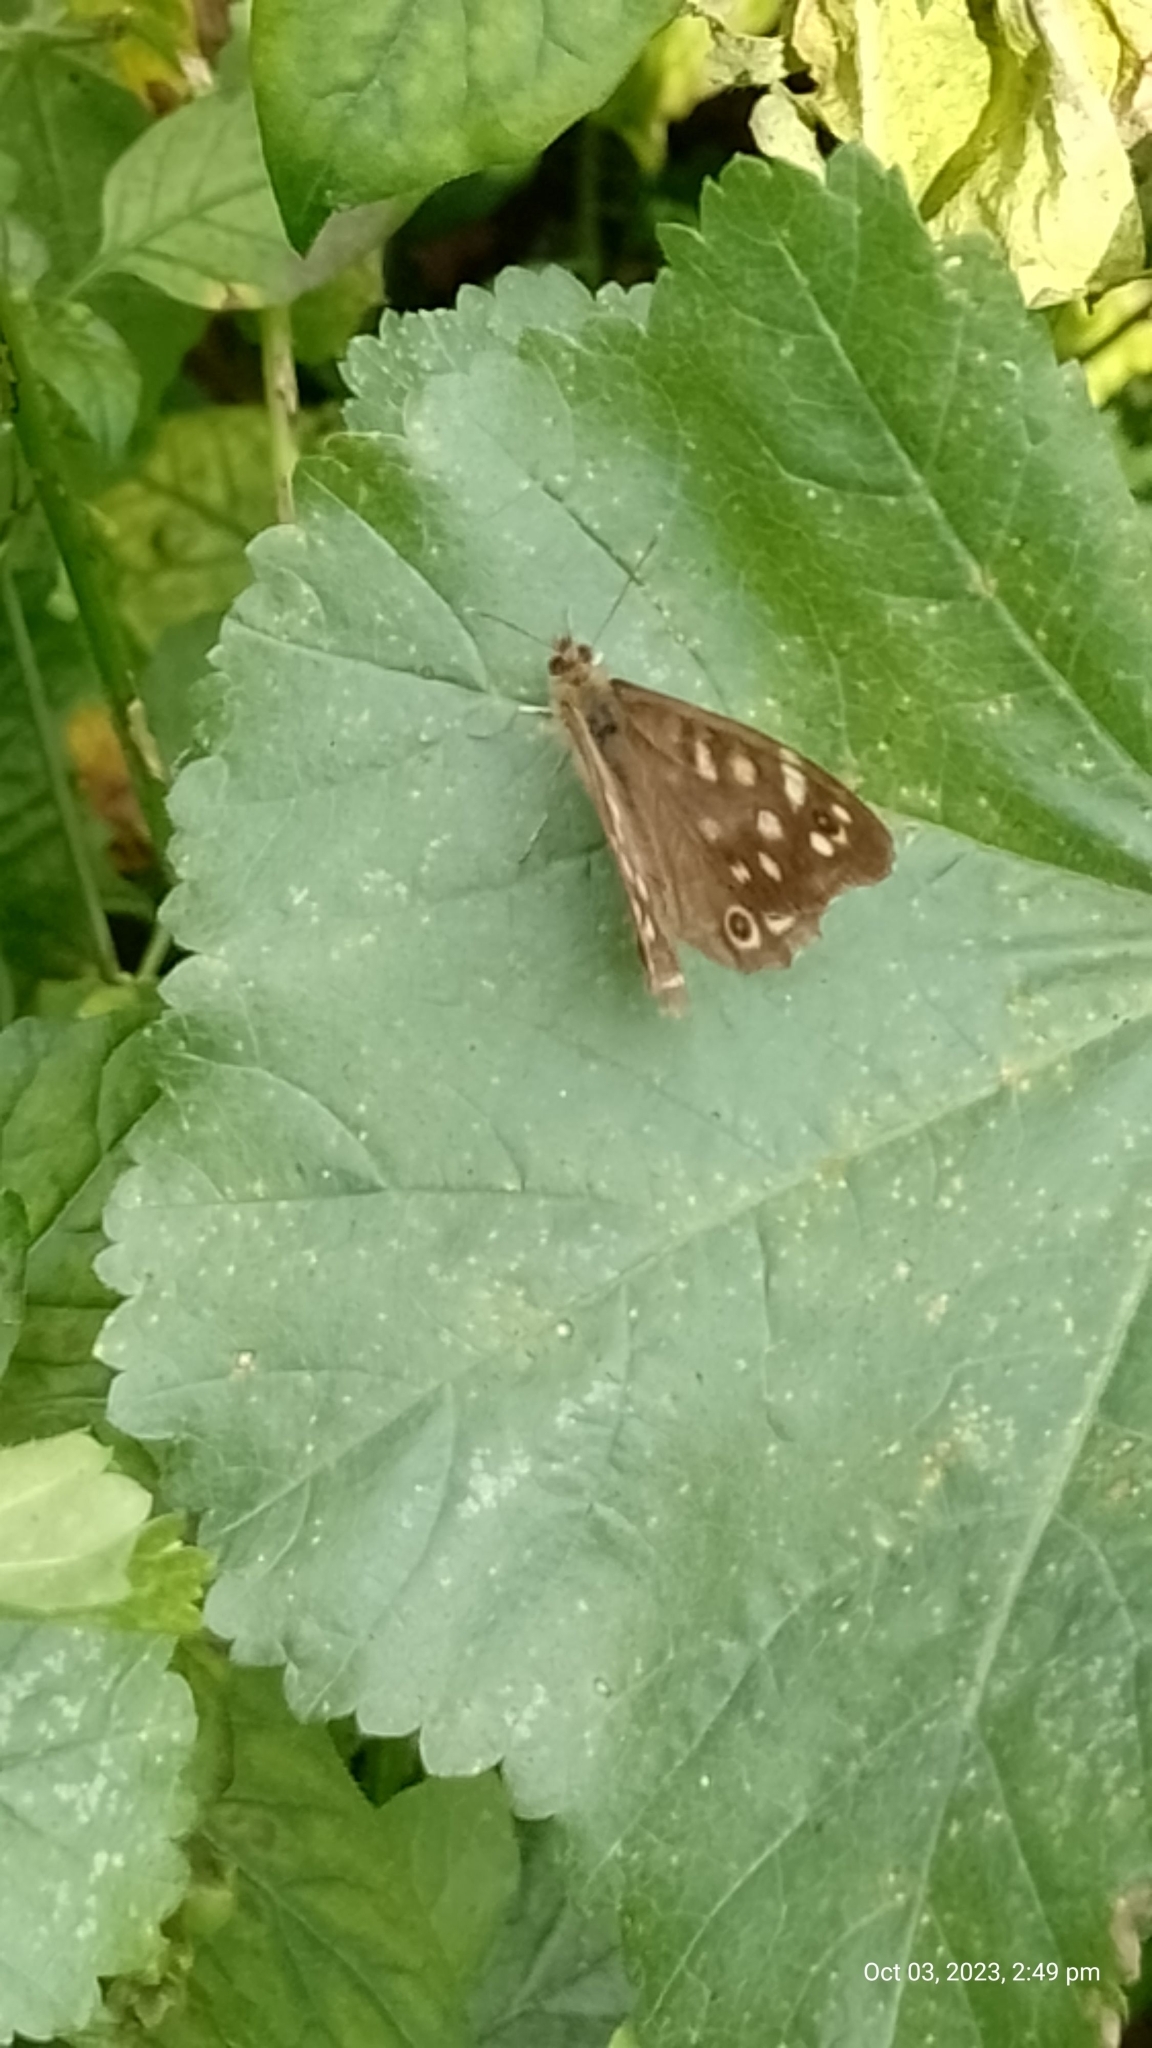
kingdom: Animalia
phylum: Arthropoda
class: Insecta
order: Lepidoptera
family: Nymphalidae
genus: Pararge
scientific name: Pararge aegeria
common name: Speckled wood
